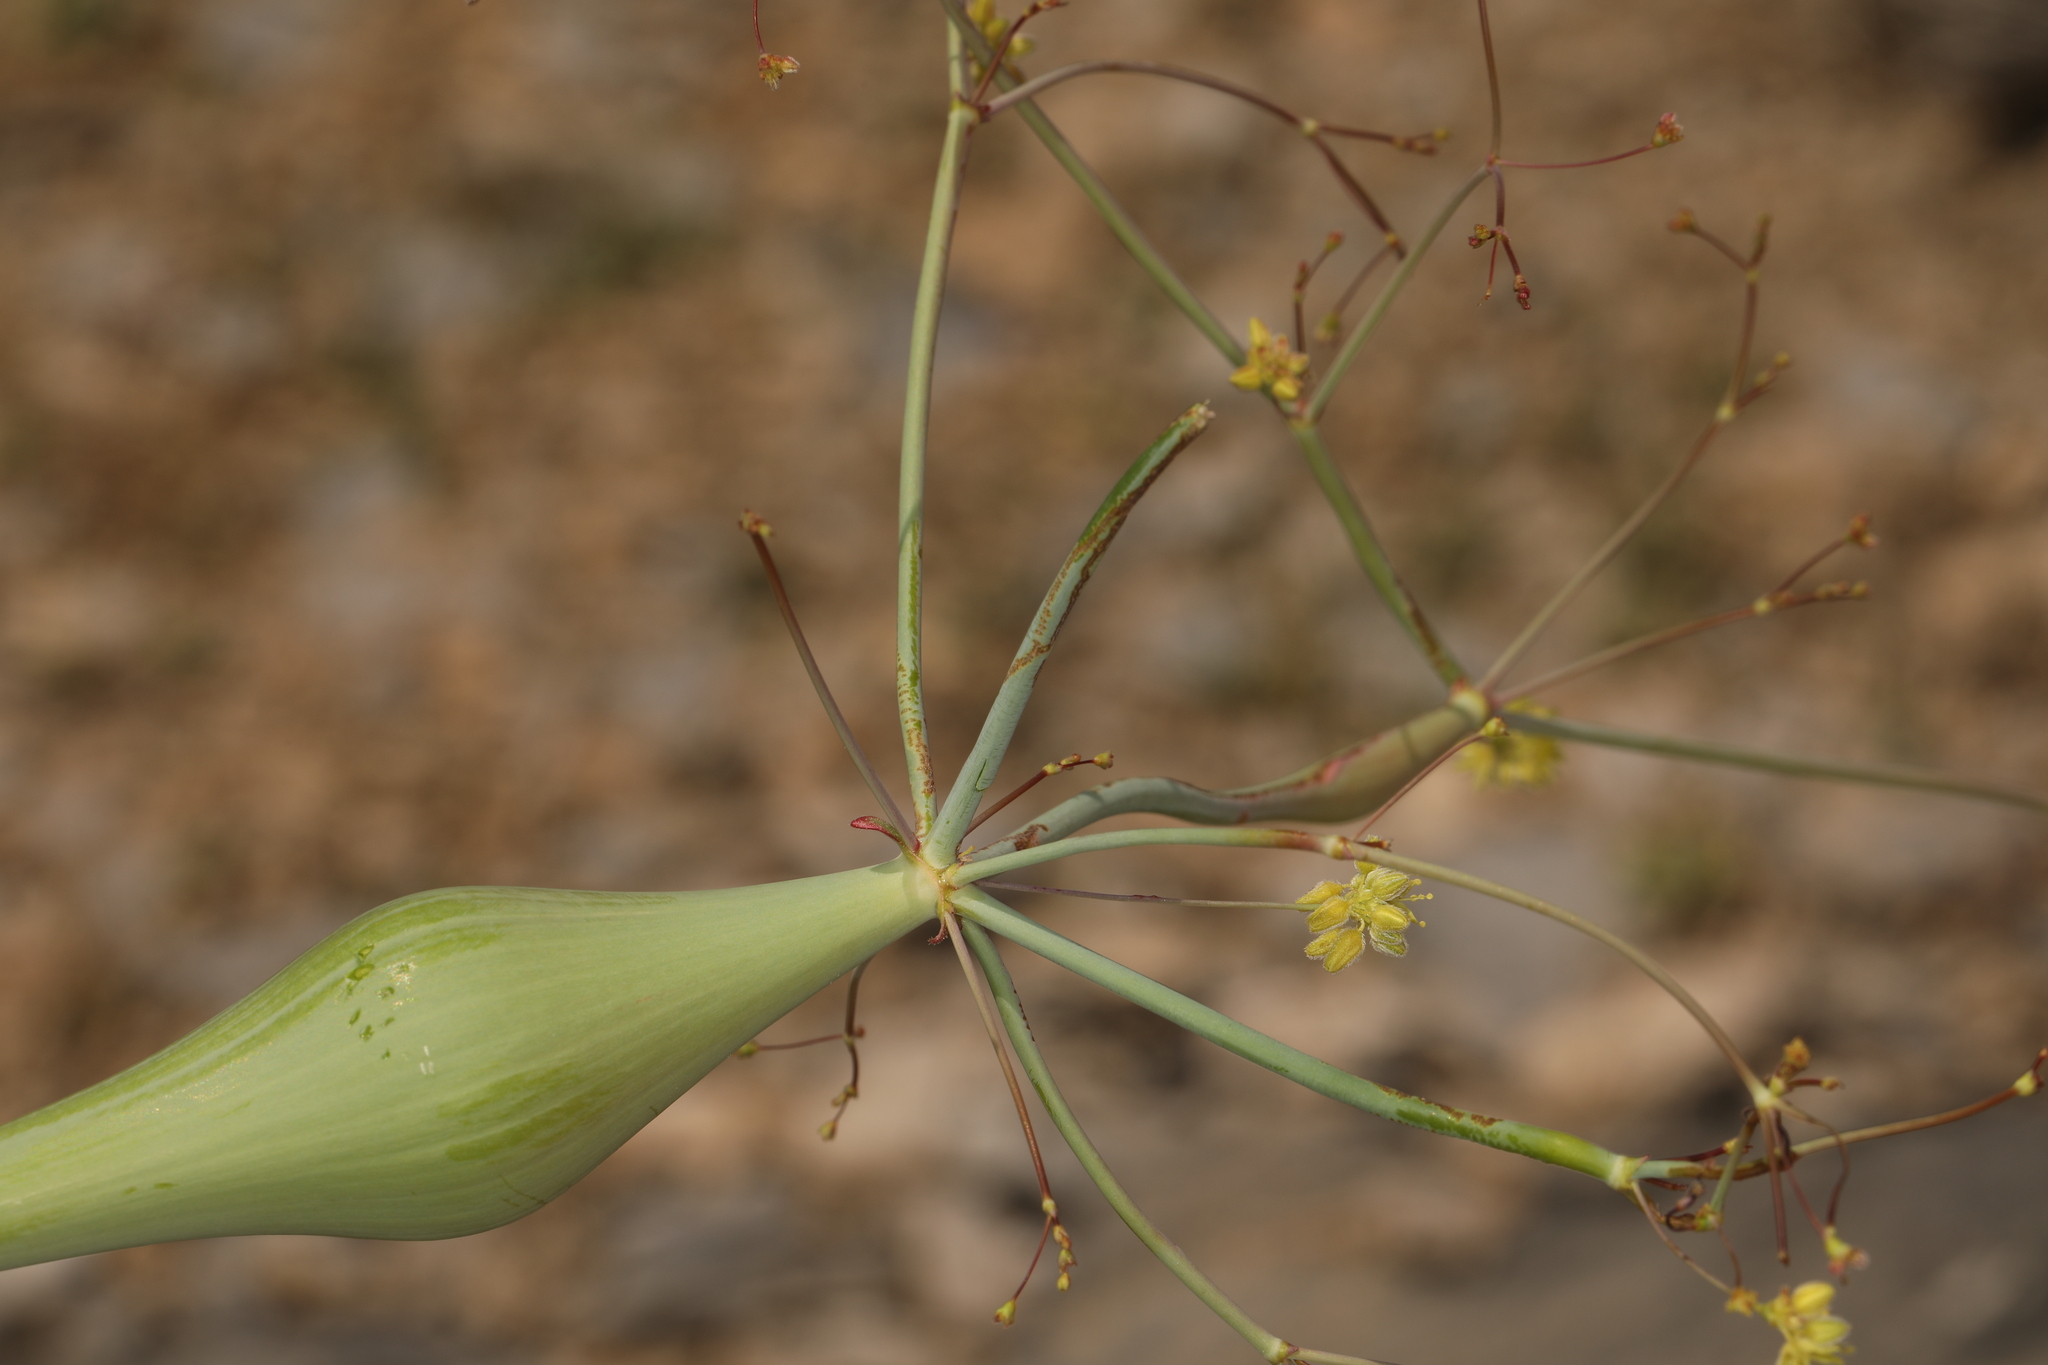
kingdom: Plantae
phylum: Tracheophyta
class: Magnoliopsida
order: Caryophyllales
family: Polygonaceae
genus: Eriogonum
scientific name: Eriogonum inflatum
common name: Desert trumpet
